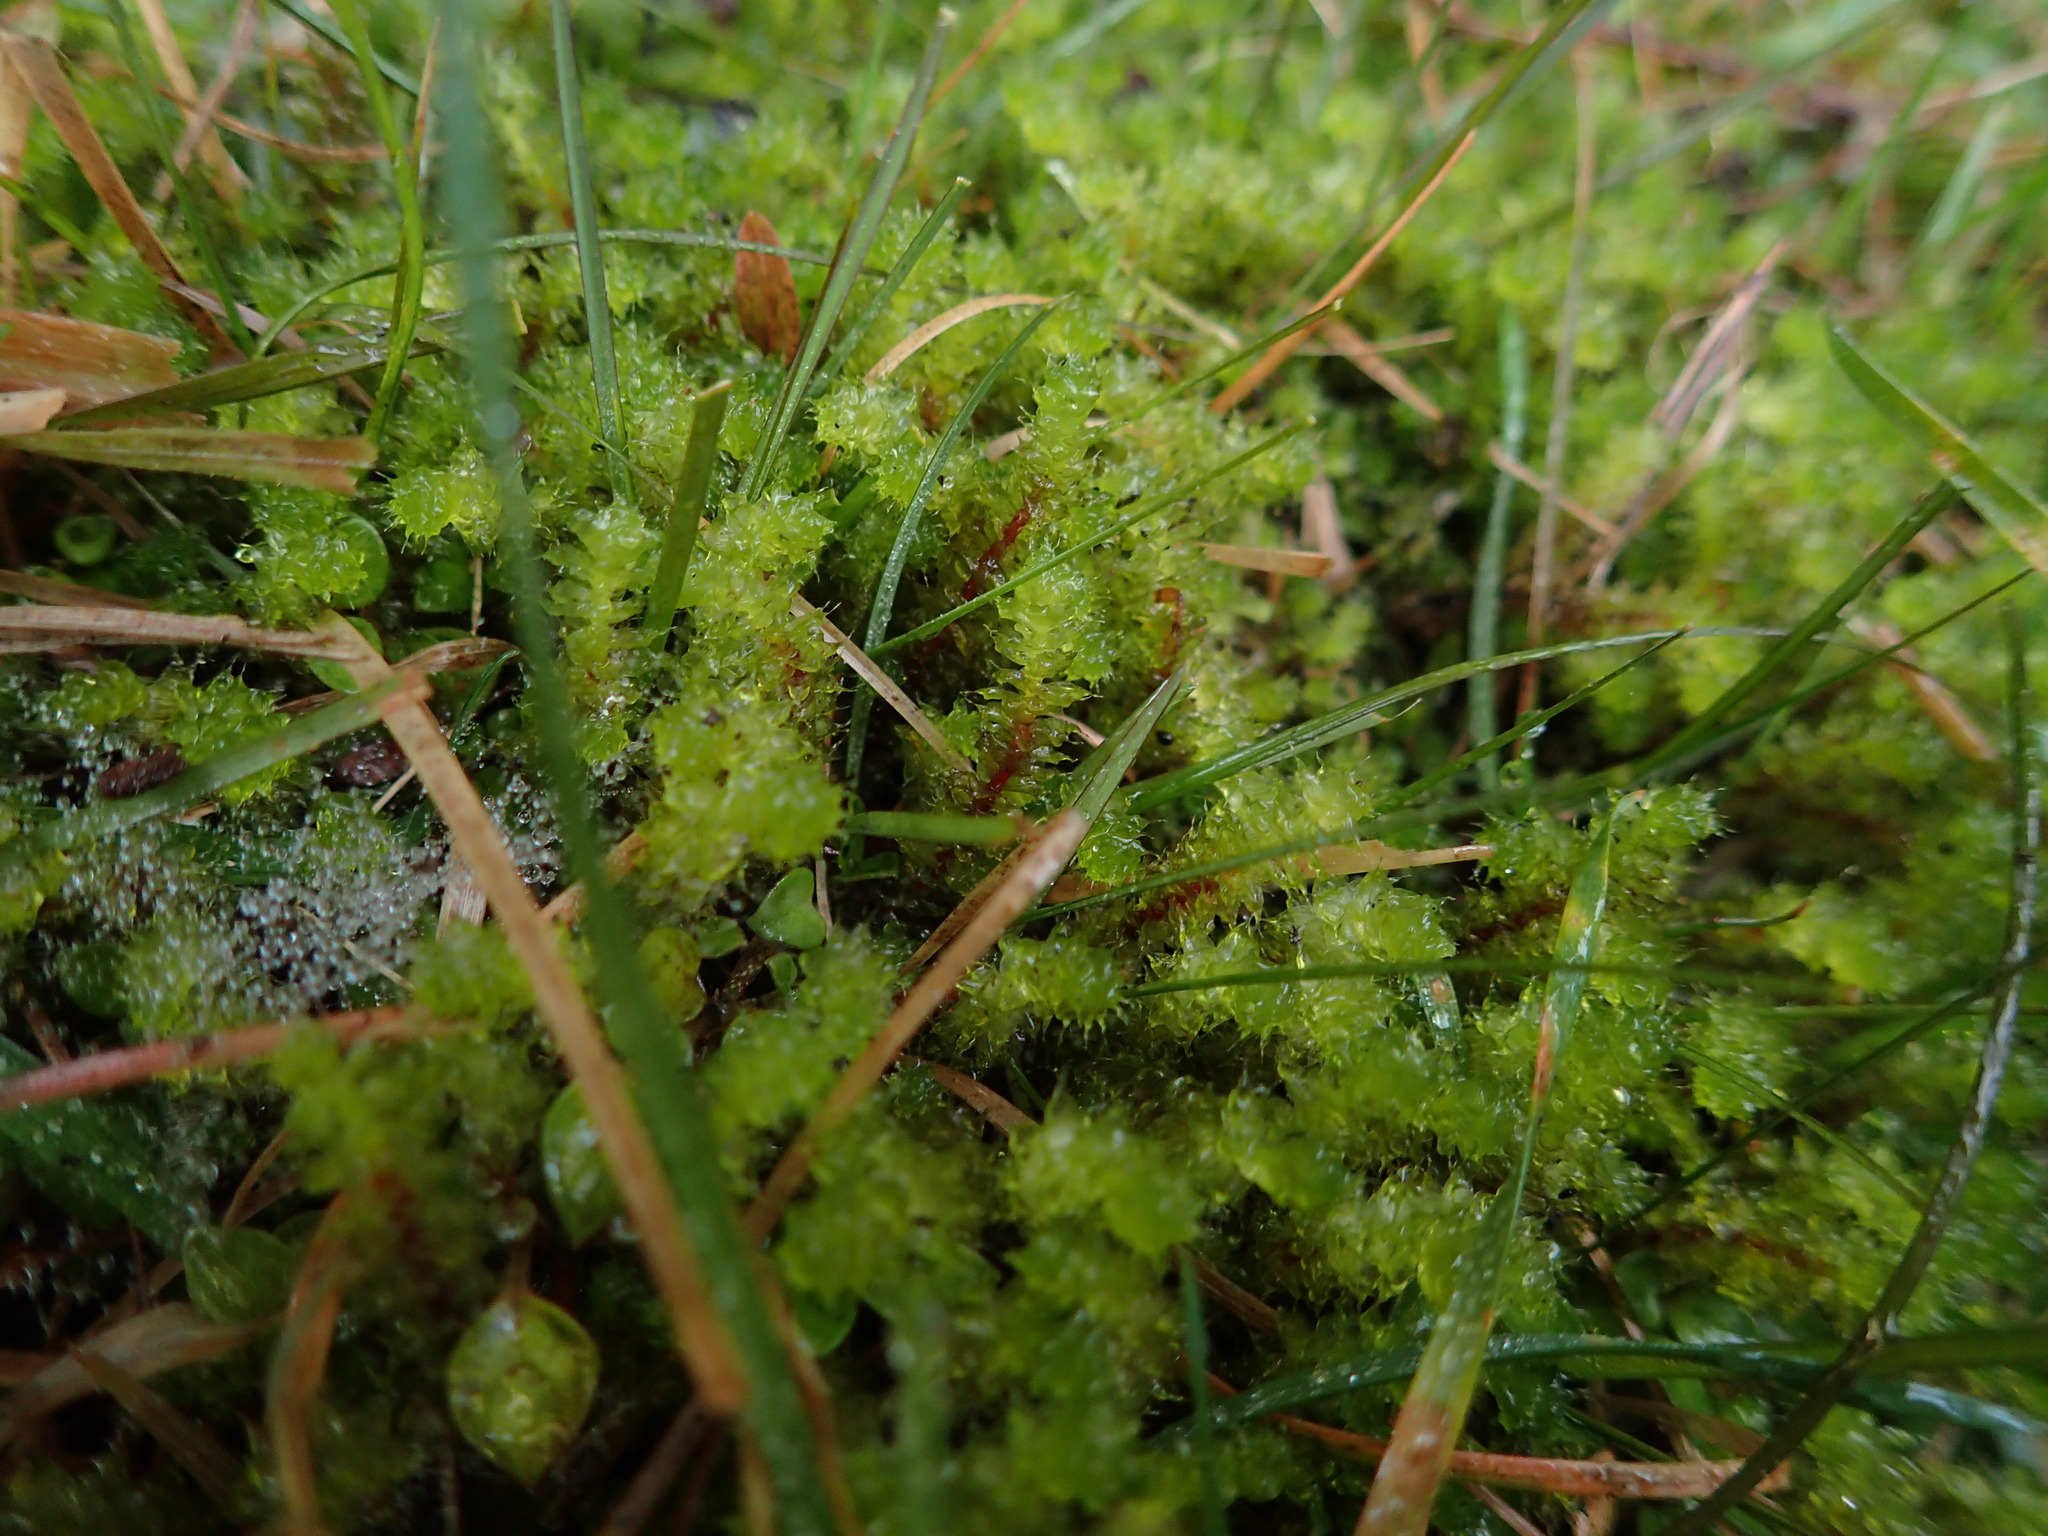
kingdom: Plantae
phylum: Bryophyta
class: Bryopsida
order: Ptychomniales
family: Ptychomniaceae
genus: Ptychomnion
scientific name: Ptychomnion aciculare
